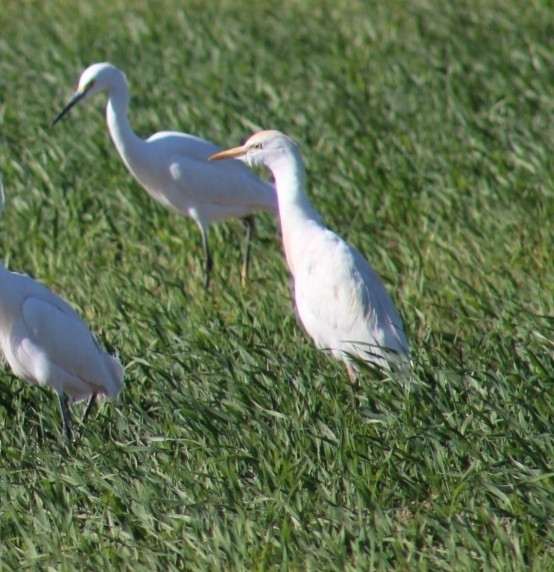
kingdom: Animalia
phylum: Chordata
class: Aves
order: Pelecaniformes
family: Ardeidae
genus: Bubulcus
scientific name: Bubulcus ibis
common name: Cattle egret
